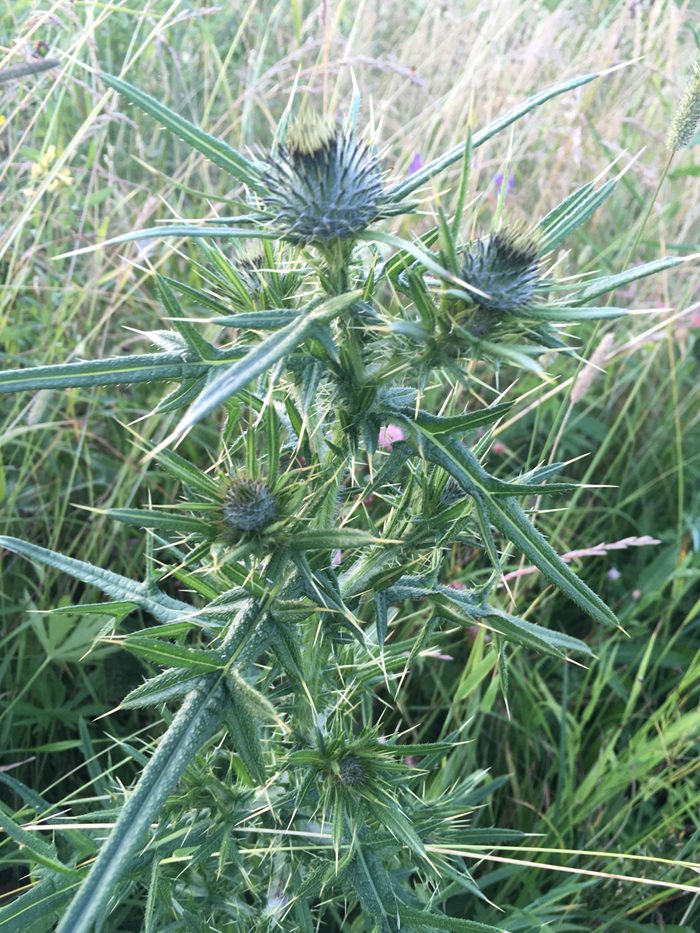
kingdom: Plantae
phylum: Tracheophyta
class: Magnoliopsida
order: Asterales
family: Asteraceae
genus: Cirsium
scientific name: Cirsium vulgare
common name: Bull thistle
